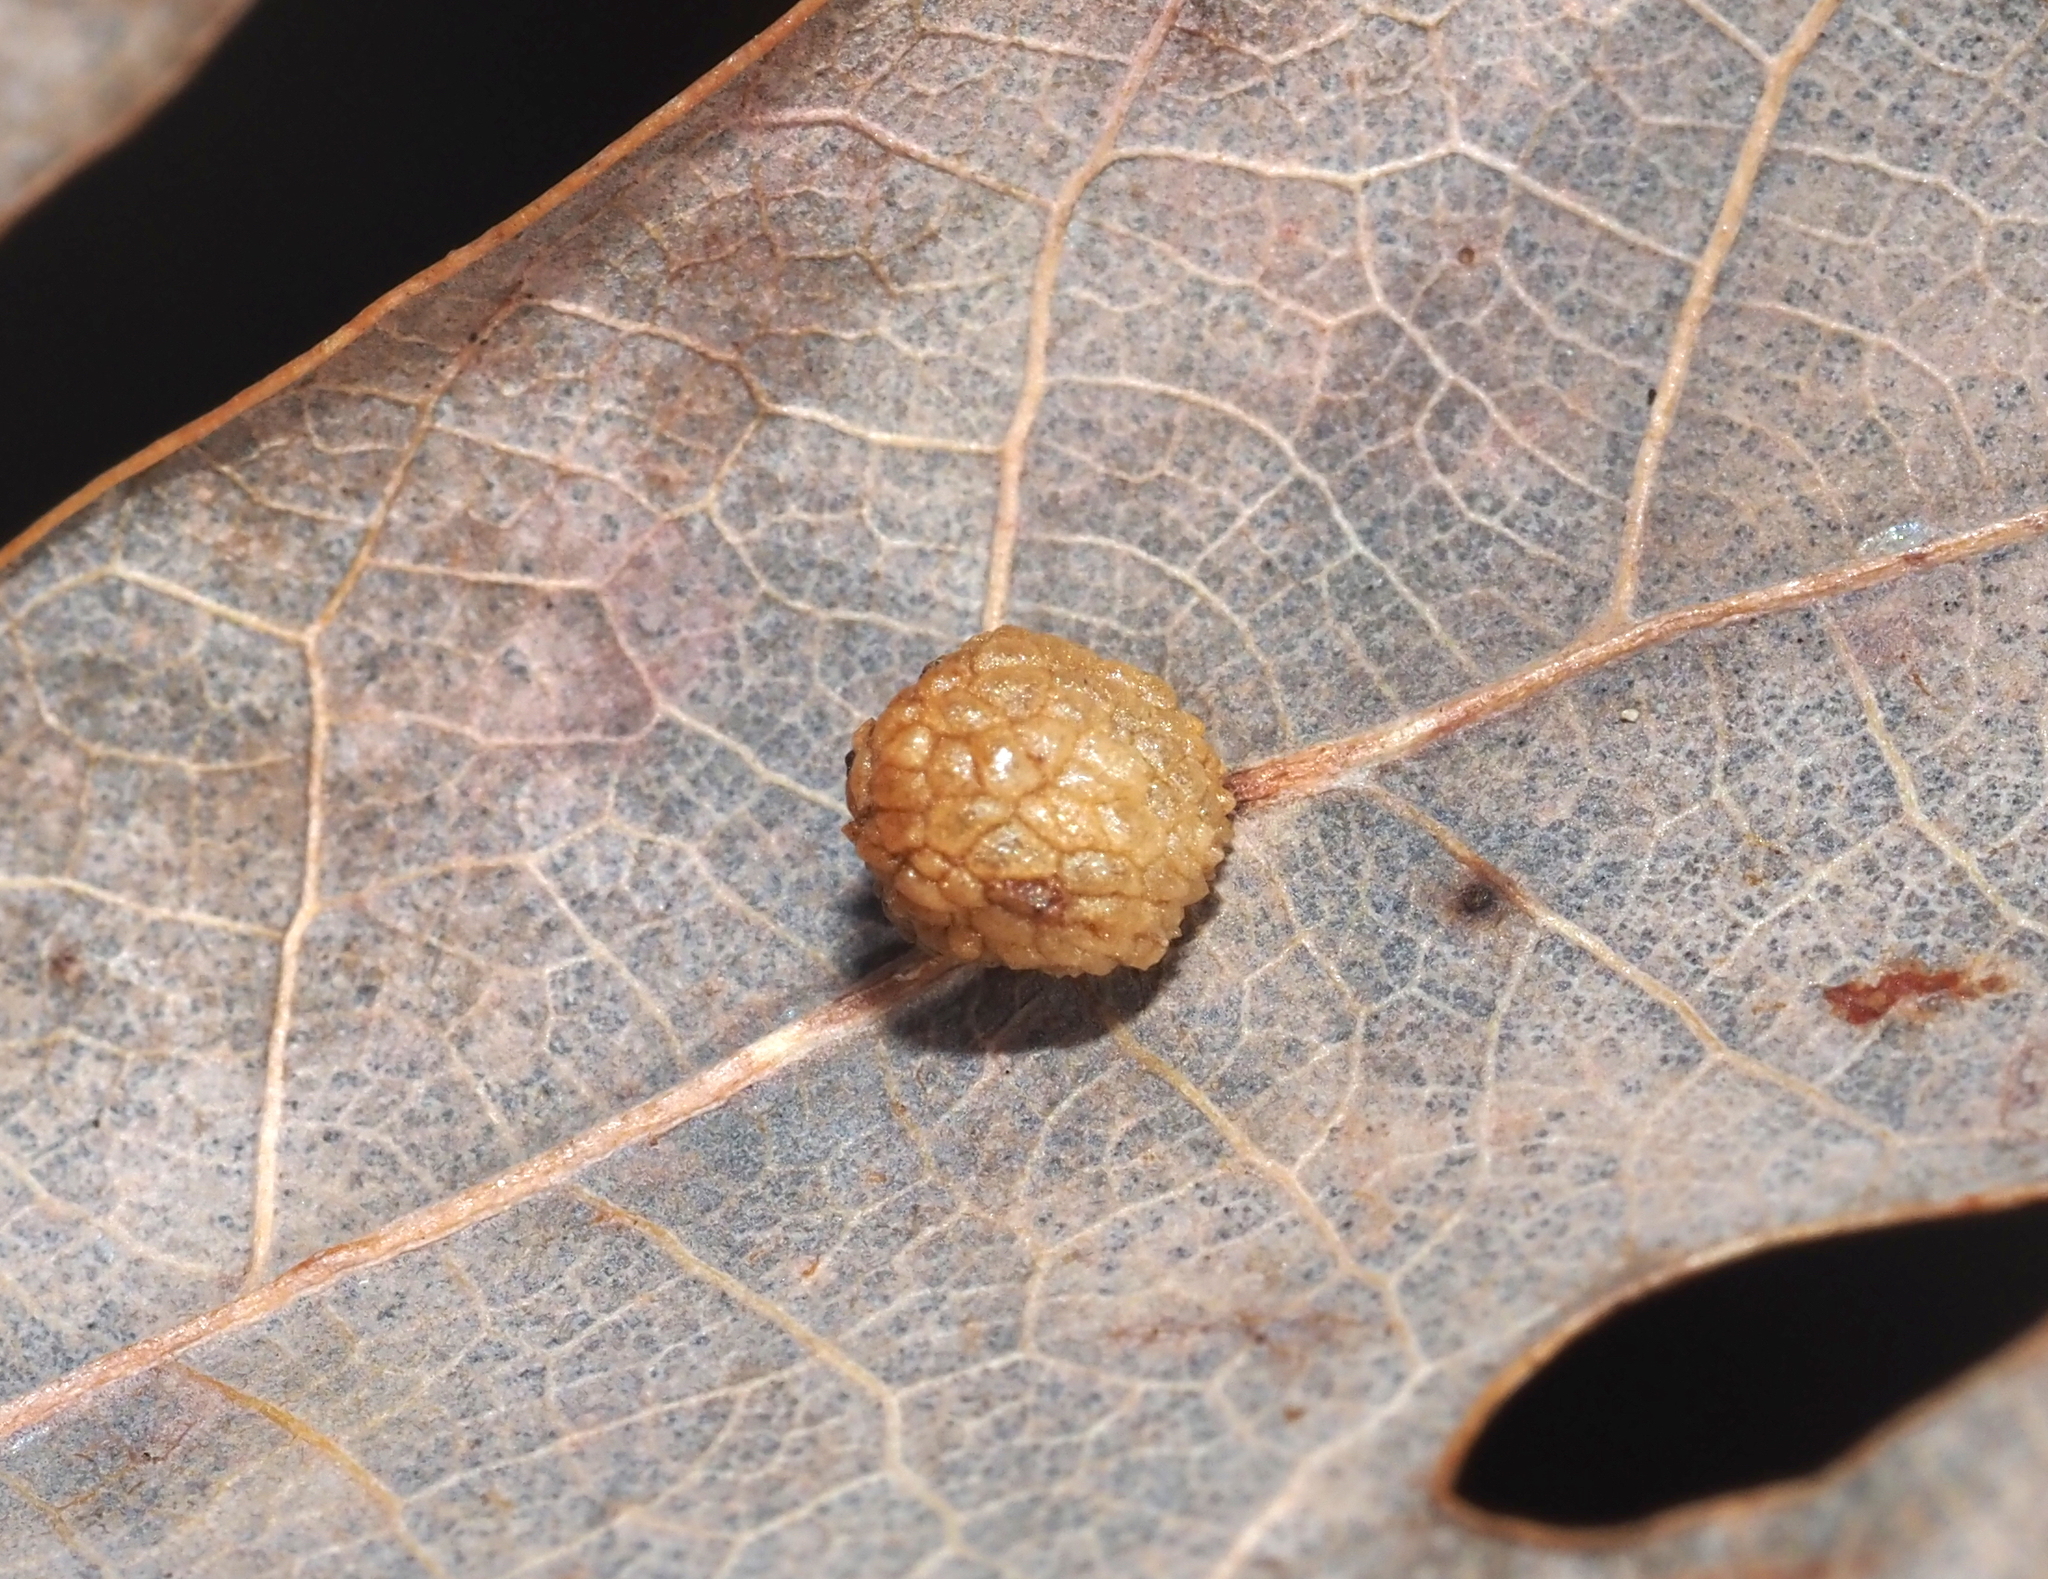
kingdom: Animalia
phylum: Arthropoda
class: Insecta
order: Hymenoptera
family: Cynipidae
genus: Acraspis
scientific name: Acraspis
